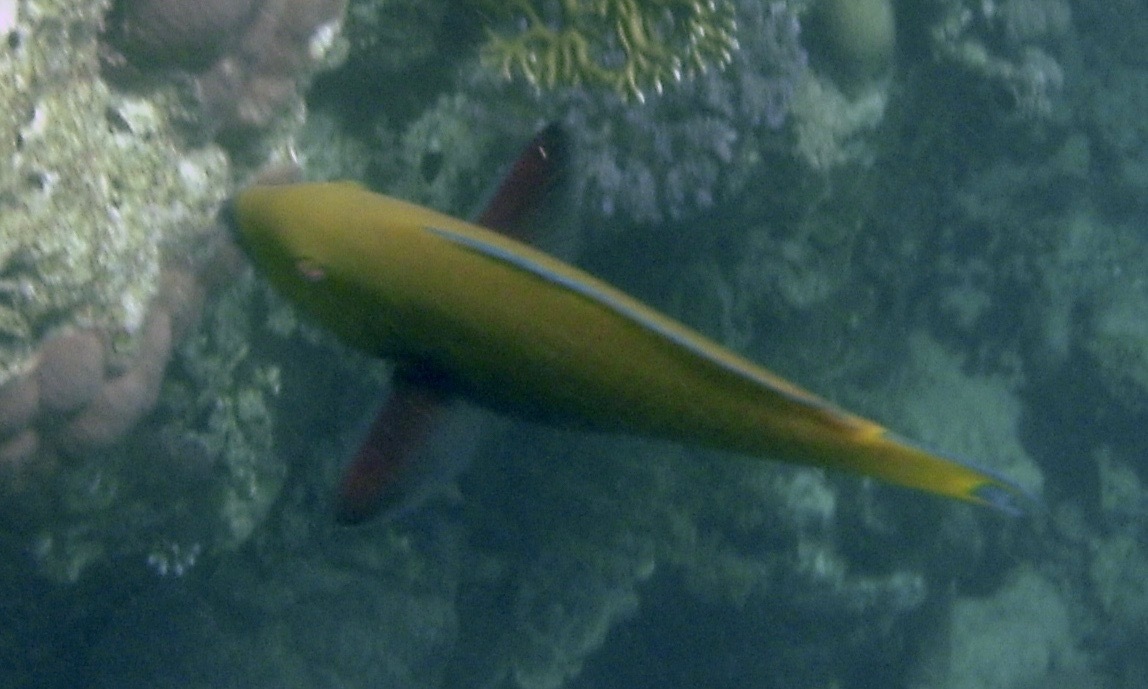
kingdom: Animalia
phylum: Chordata
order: Perciformes
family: Scaridae
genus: Chlorurus
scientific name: Chlorurus gibbus
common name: Heavybeak parrotfish
